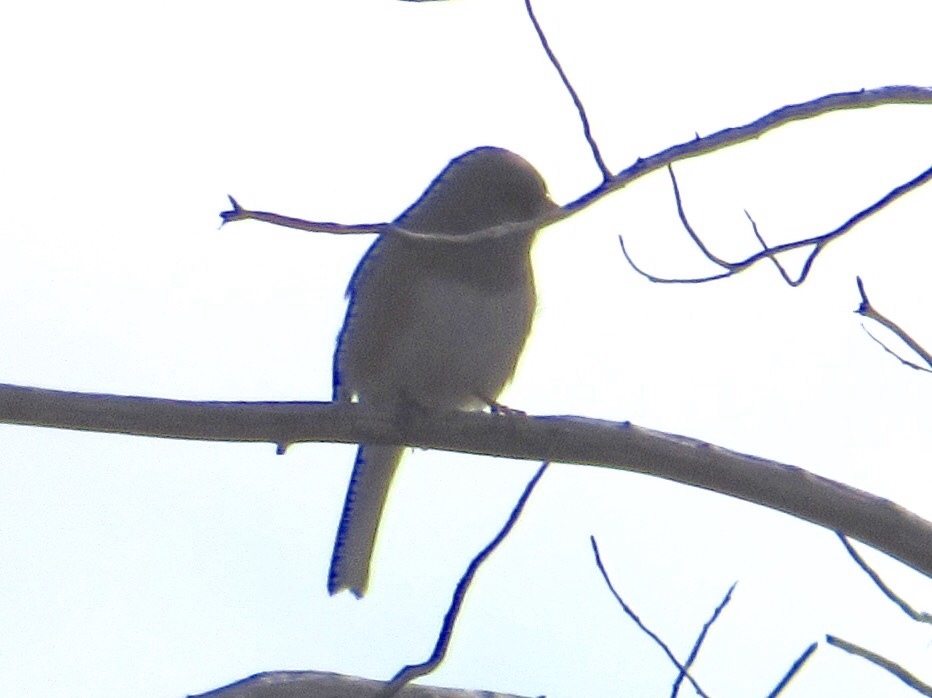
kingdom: Animalia
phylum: Chordata
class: Aves
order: Passeriformes
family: Passerellidae
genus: Junco
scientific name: Junco hyemalis
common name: Dark-eyed junco
